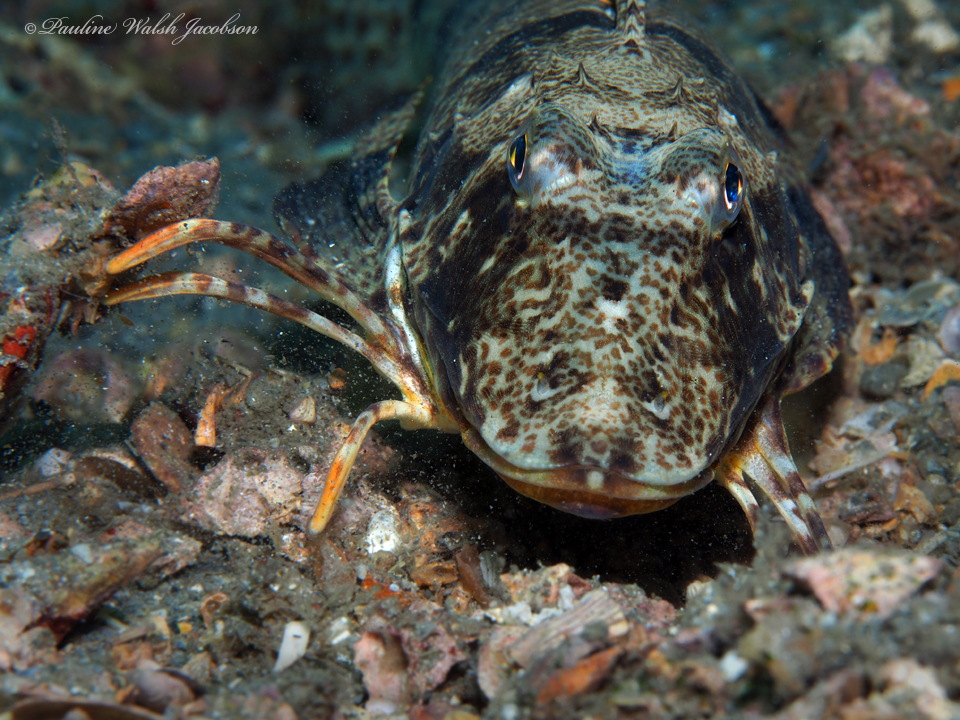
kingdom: Animalia
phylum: Chordata
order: Scorpaeniformes
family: Triglidae
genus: Prionotus
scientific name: Prionotus tribulus
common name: Bighead searobin
